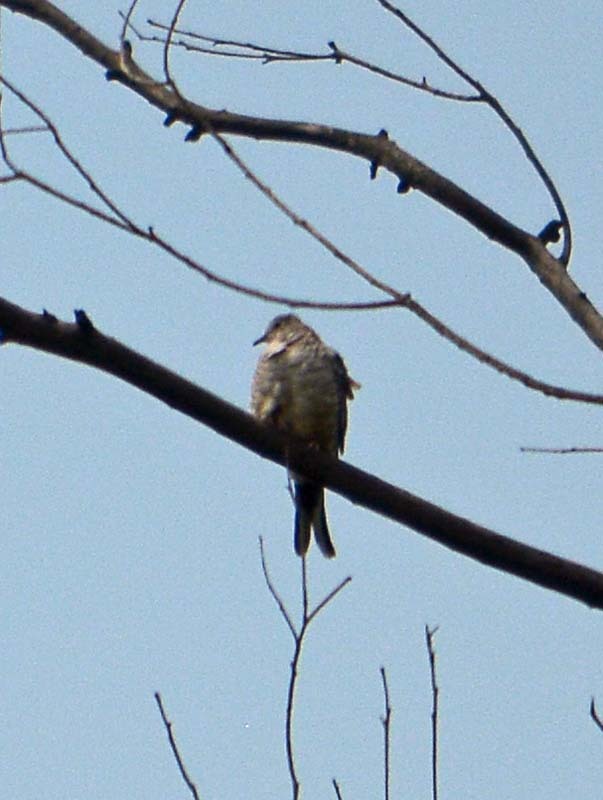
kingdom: Animalia
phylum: Chordata
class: Aves
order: Columbiformes
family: Columbidae
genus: Columbina
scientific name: Columbina inca
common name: Inca dove
